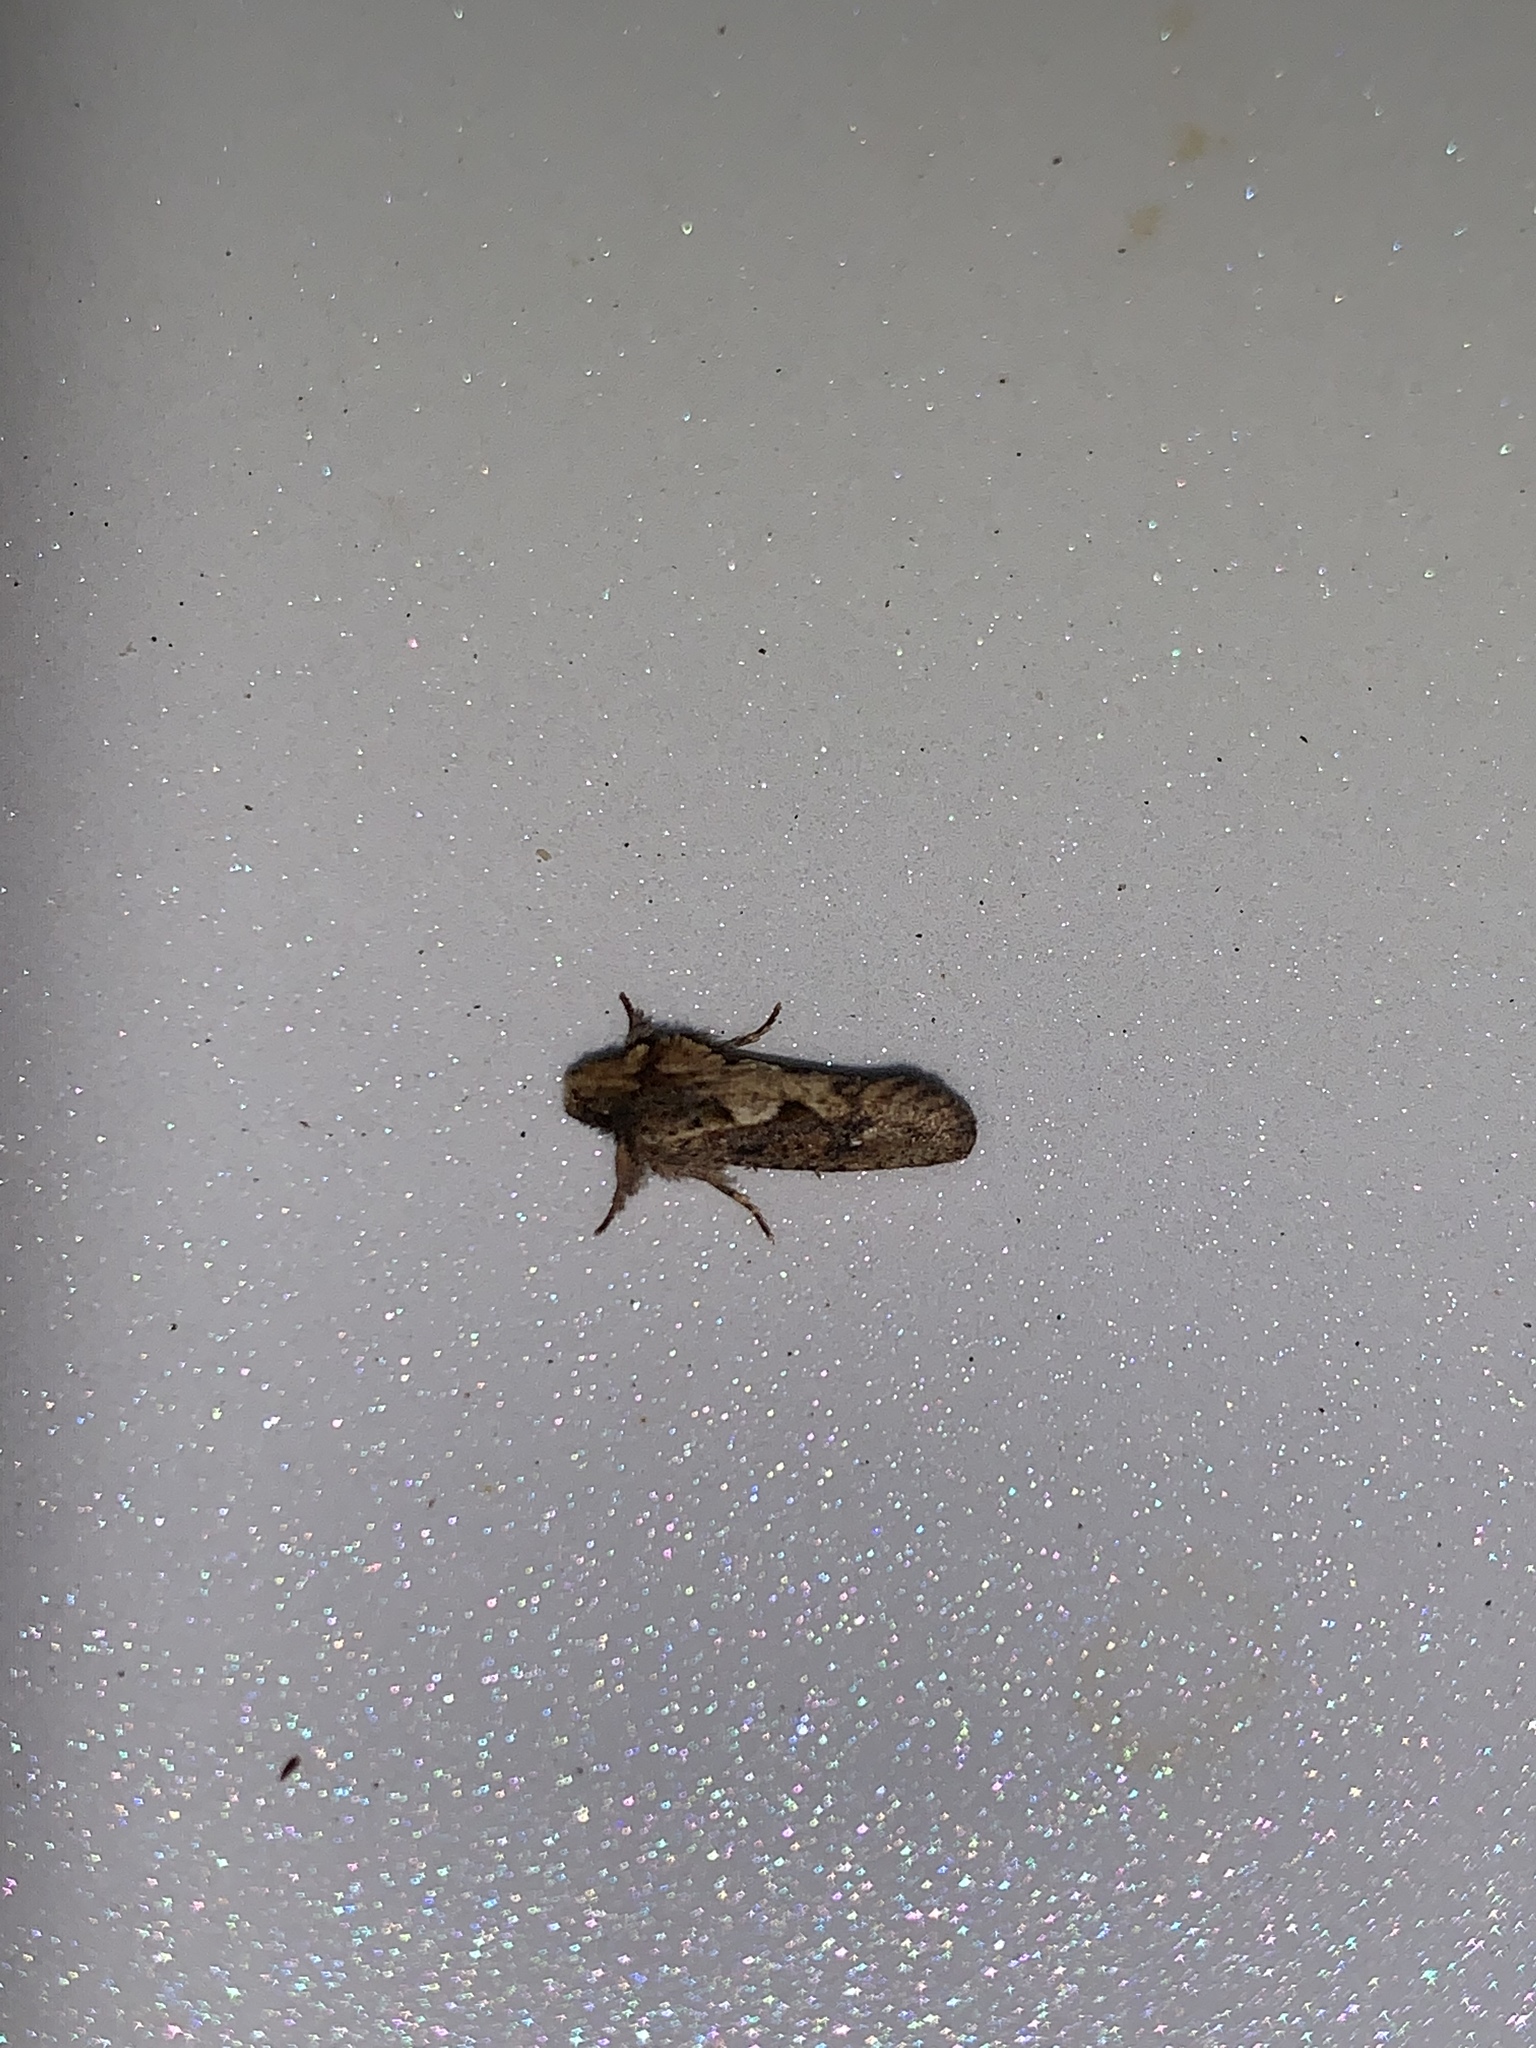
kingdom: Animalia
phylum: Arthropoda
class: Insecta
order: Lepidoptera
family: Tineidae
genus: Acrolophus
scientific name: Acrolophus walsinghami
